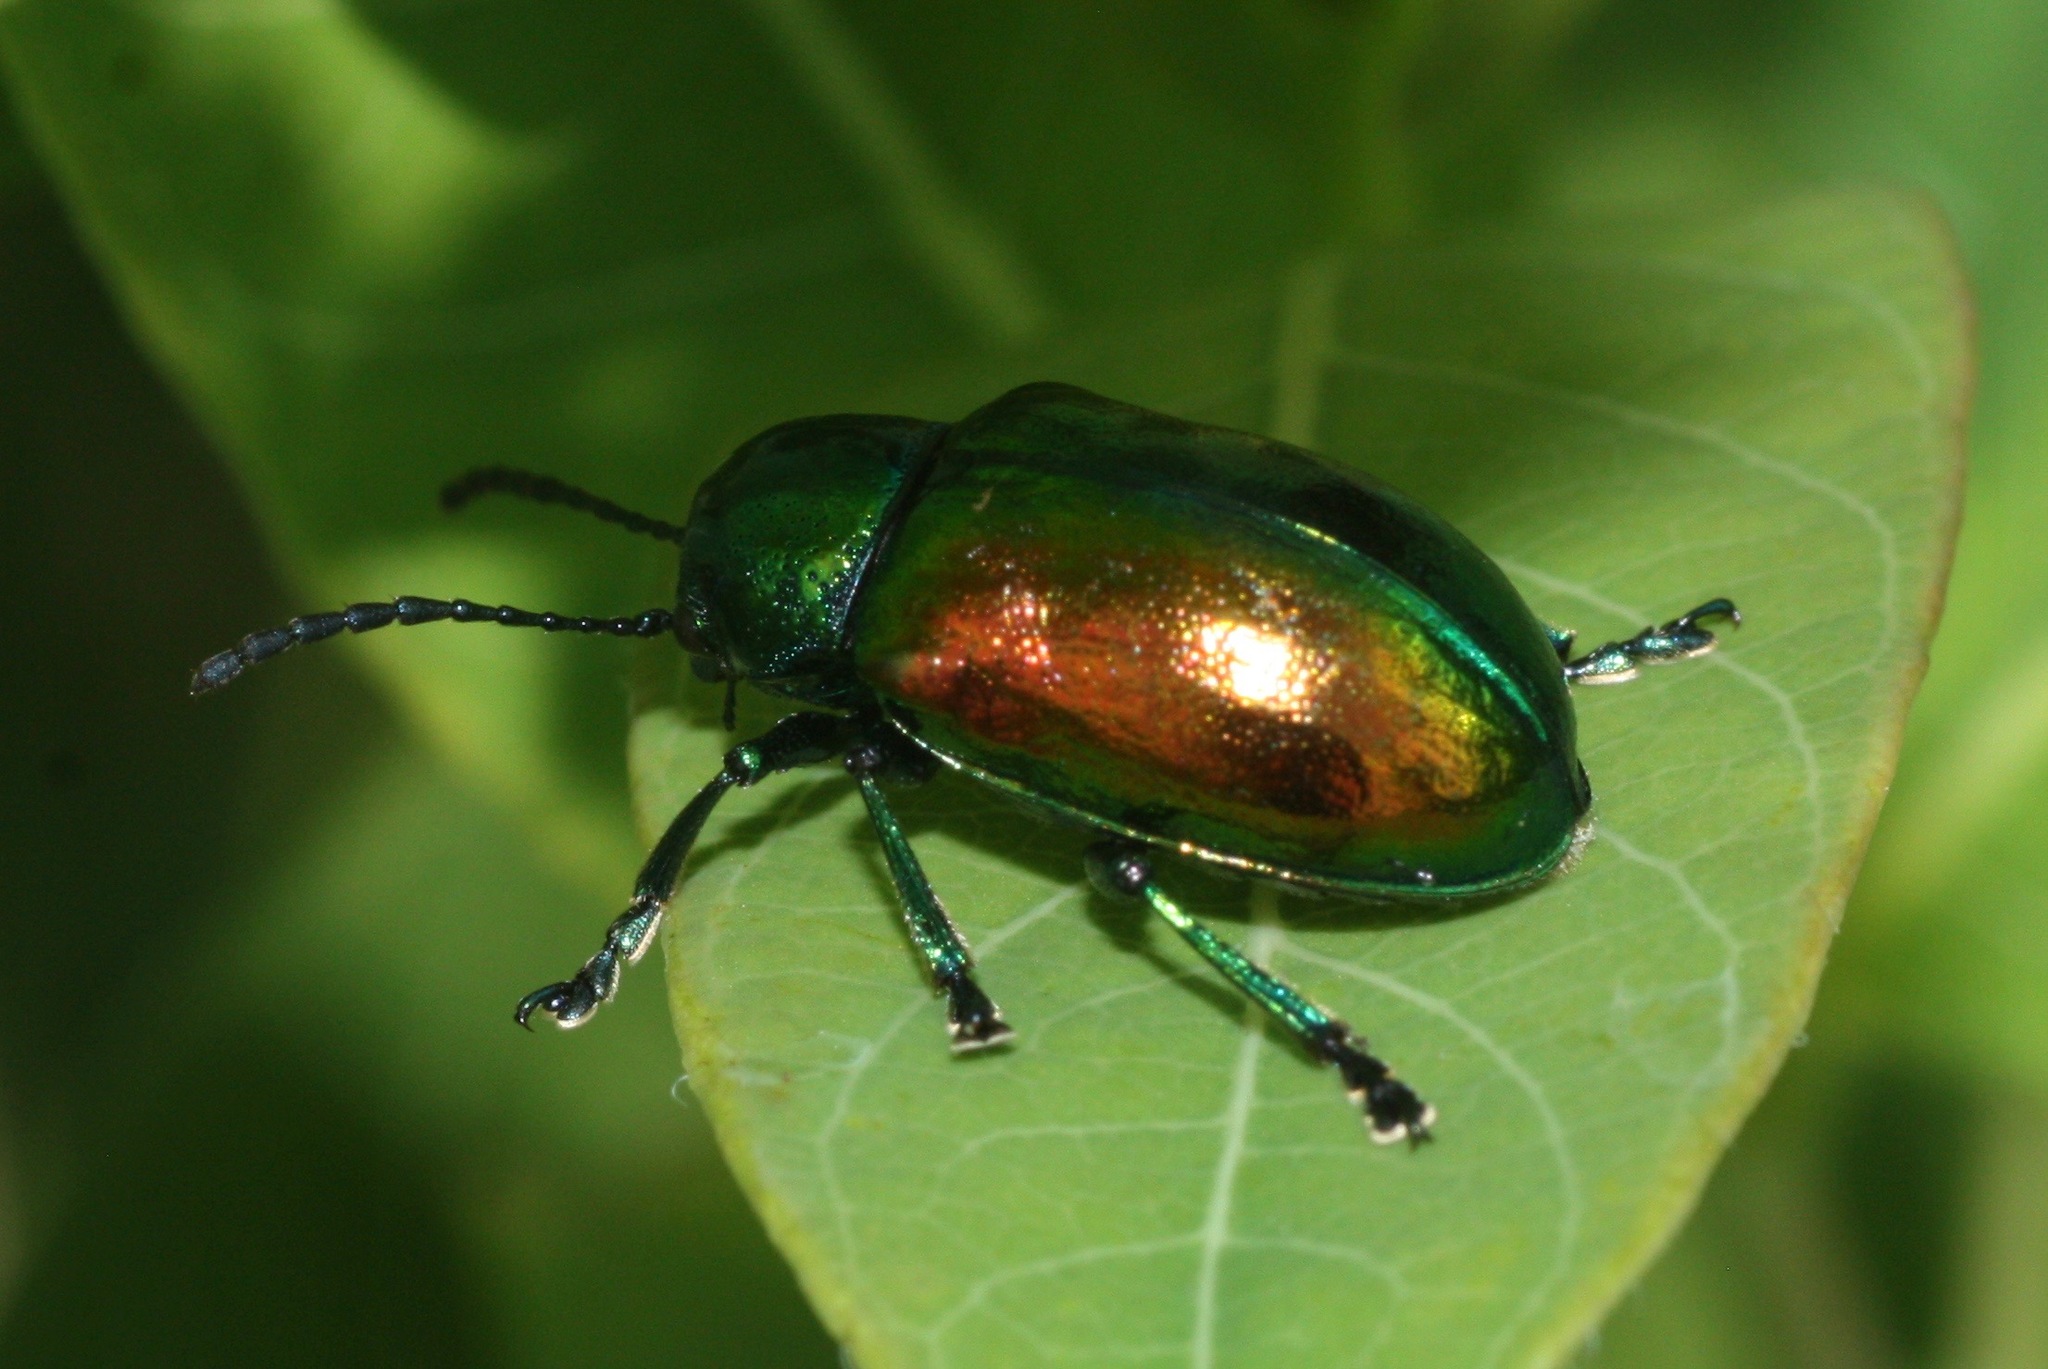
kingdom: Animalia
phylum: Arthropoda
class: Insecta
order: Coleoptera
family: Chrysomelidae
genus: Chrysochus
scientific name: Chrysochus auratus
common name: Dogbane leaf beetle
